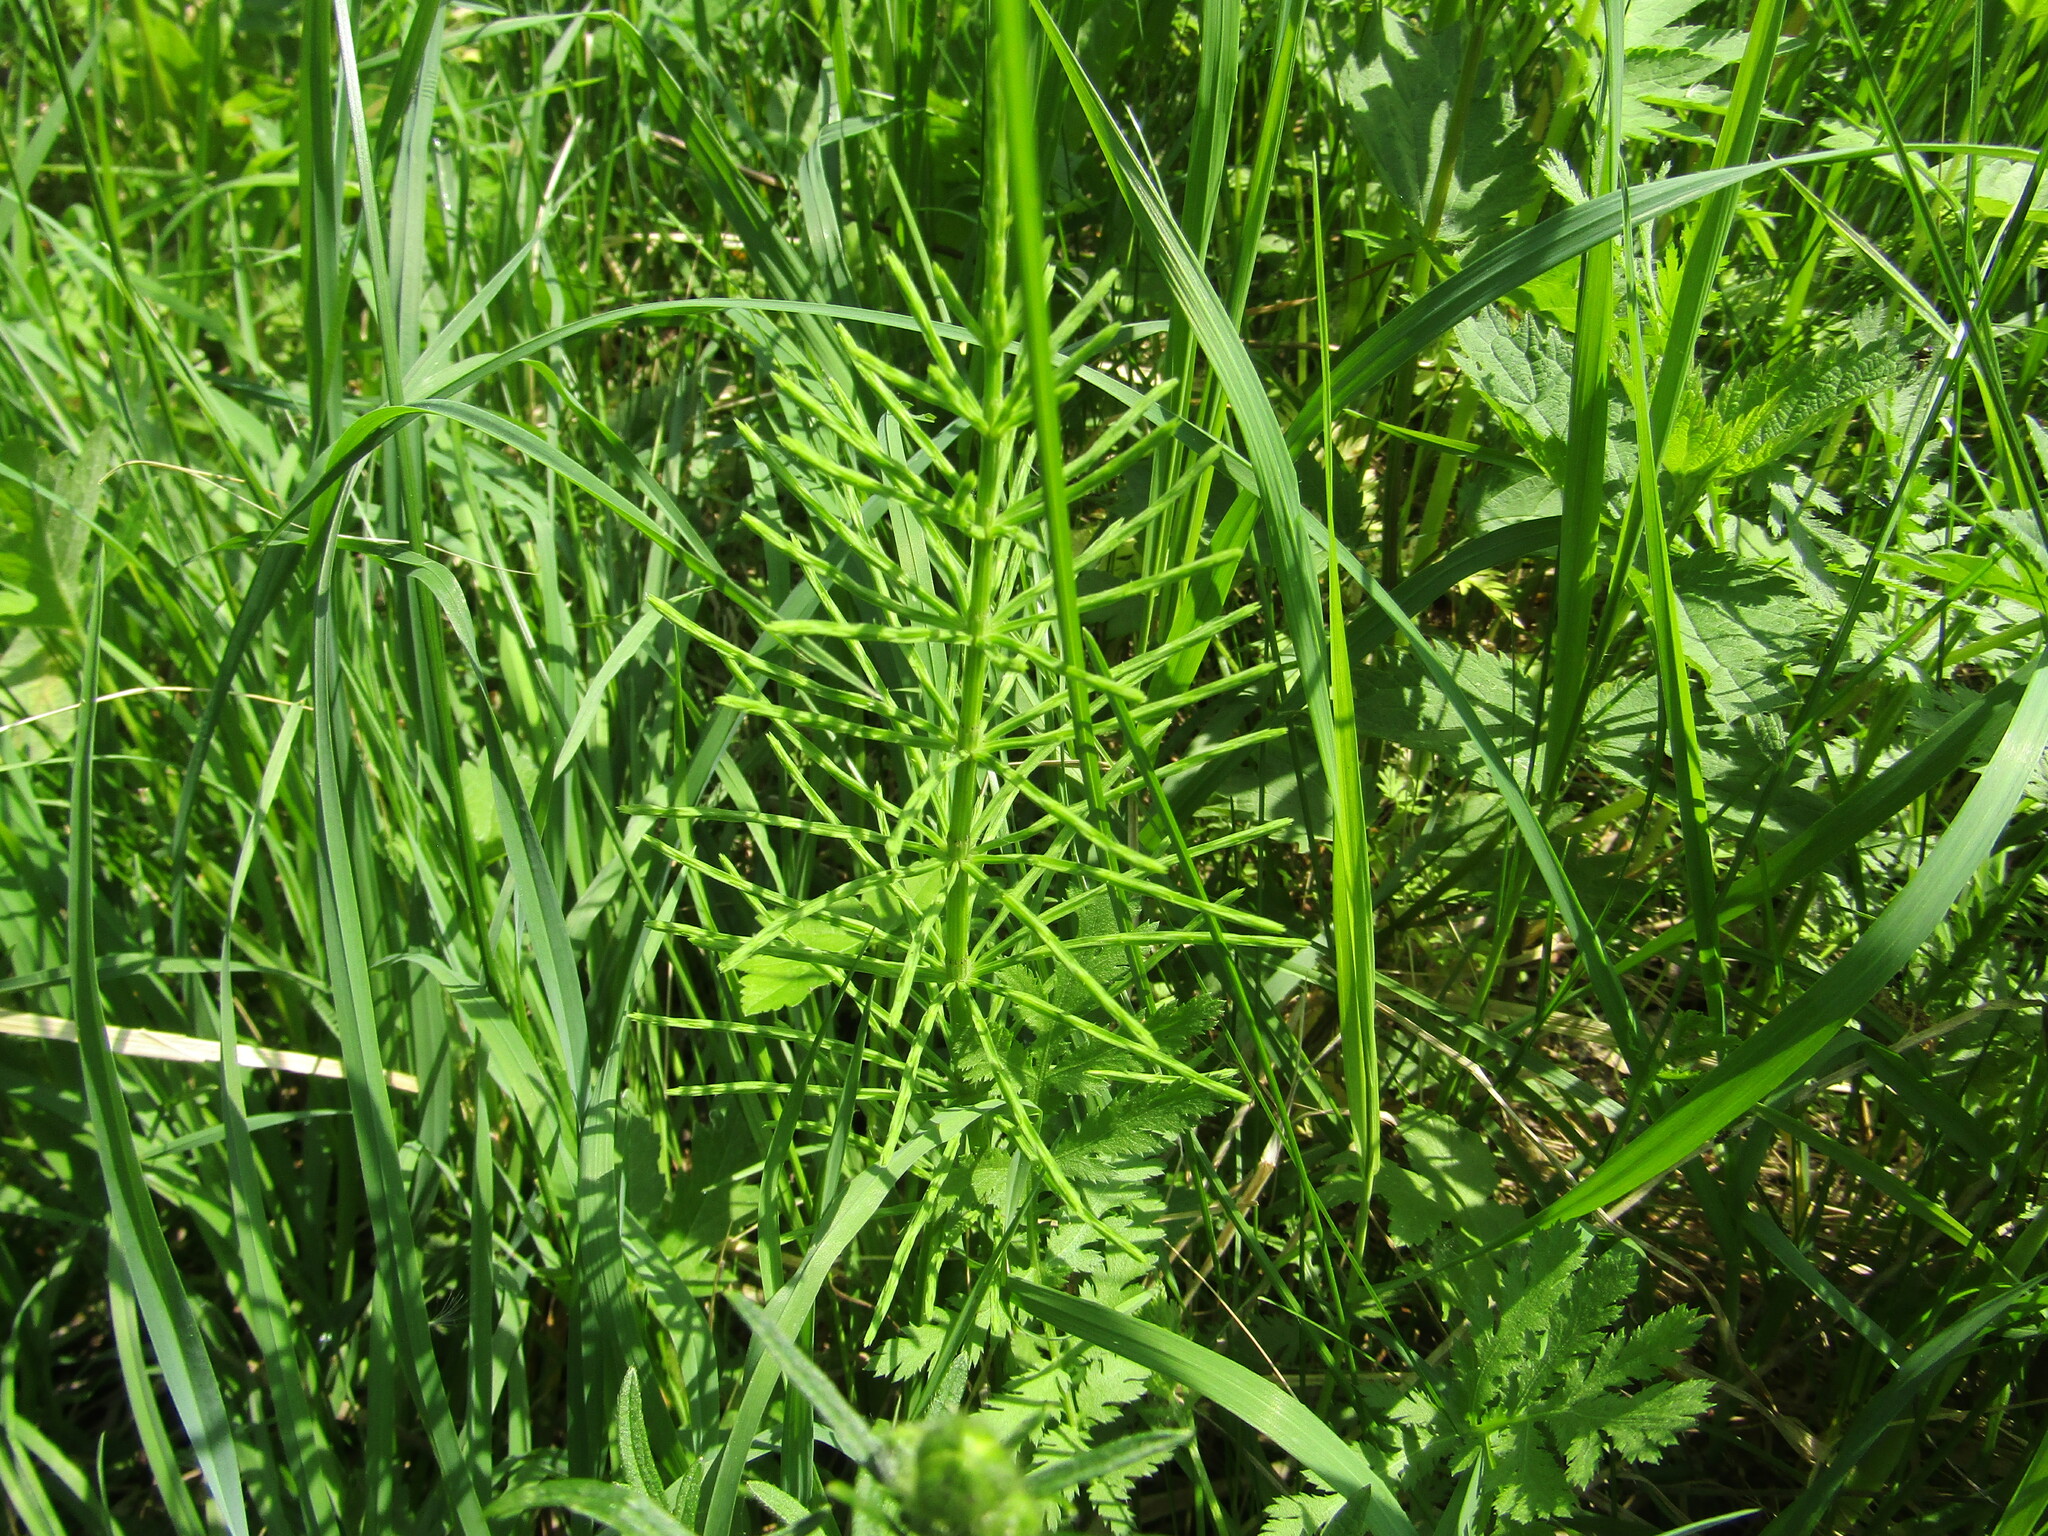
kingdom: Plantae
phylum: Tracheophyta
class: Polypodiopsida
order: Equisetales
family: Equisetaceae
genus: Equisetum
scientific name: Equisetum arvense
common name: Field horsetail
